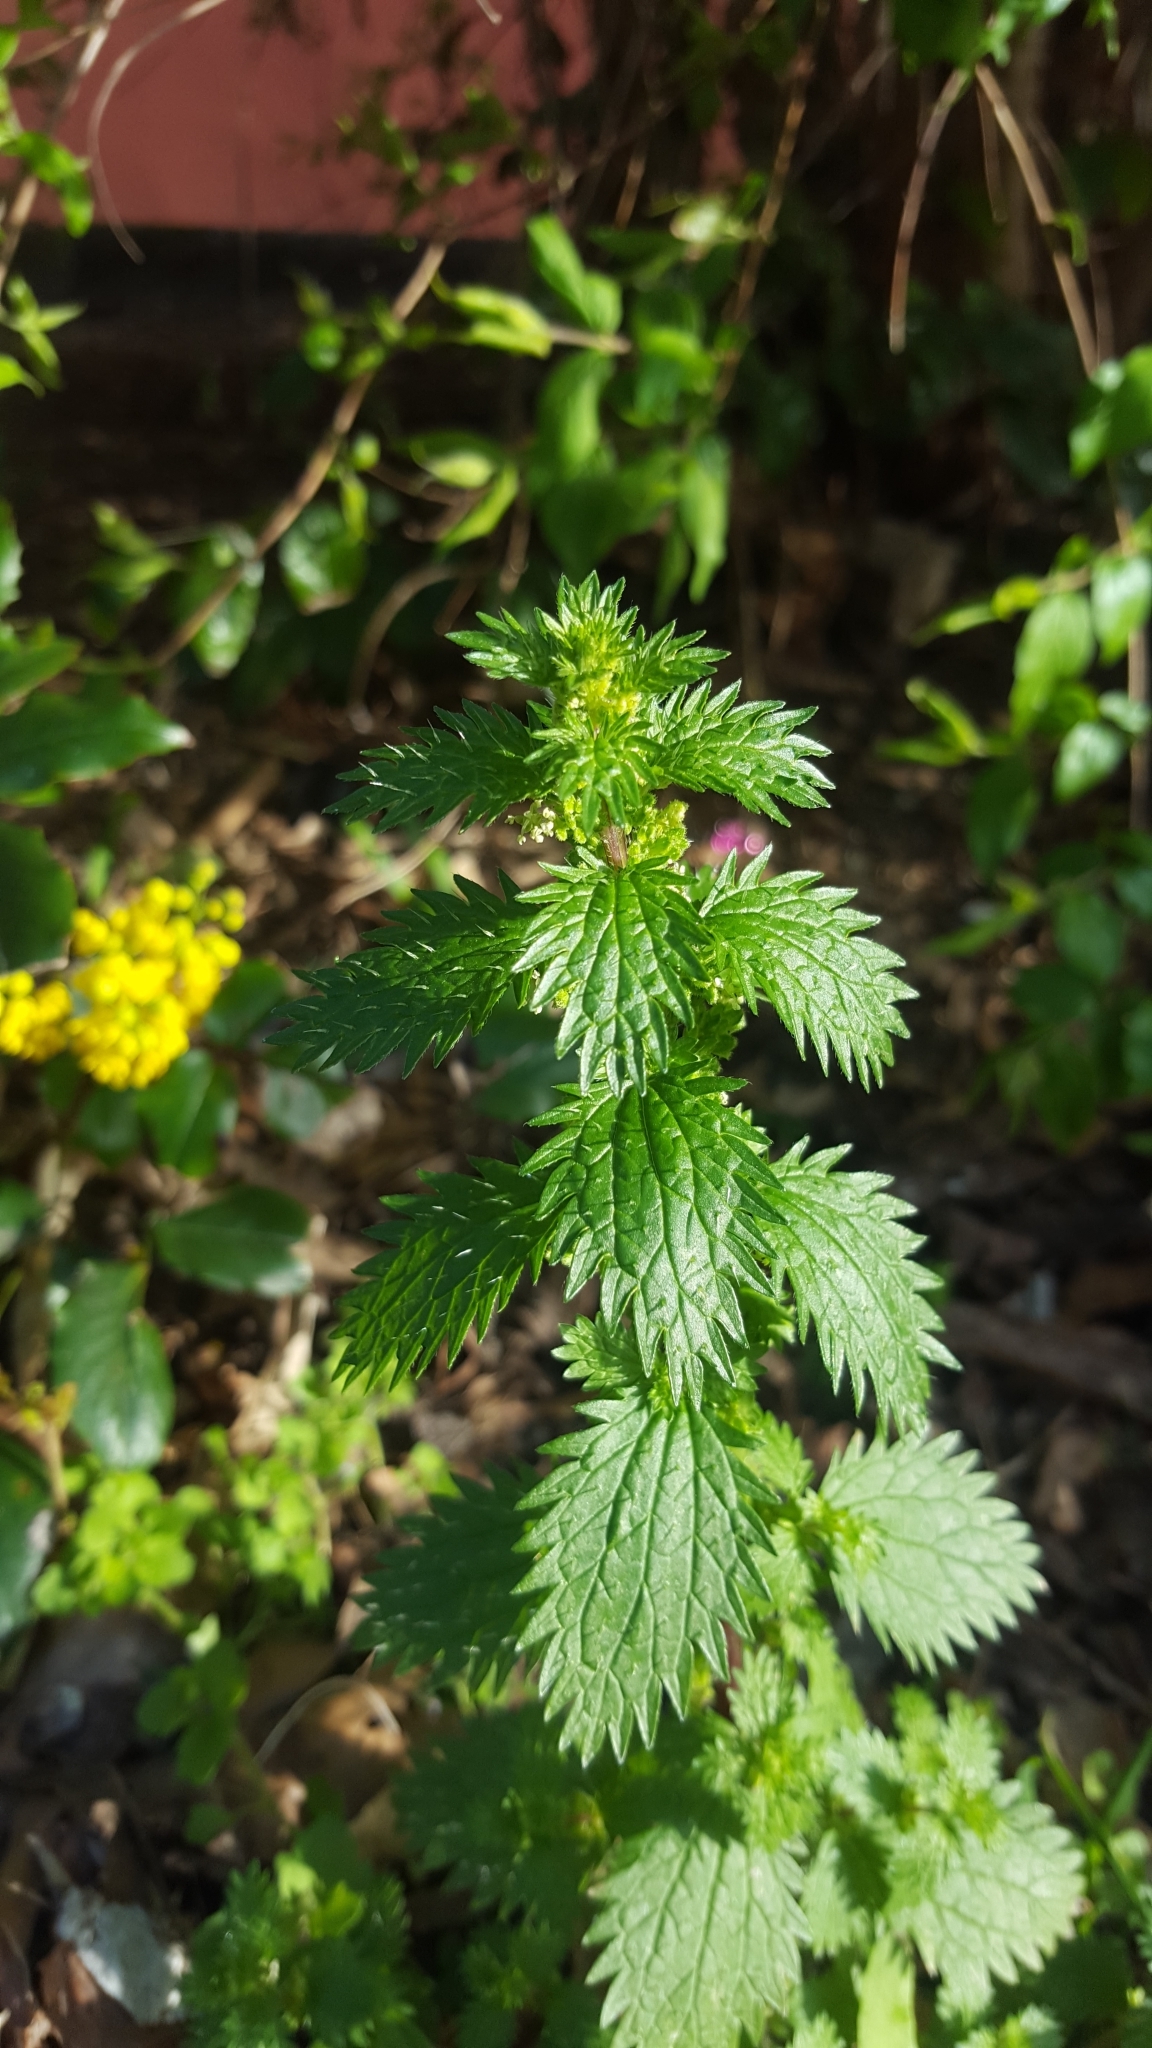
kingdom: Plantae
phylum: Tracheophyta
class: Magnoliopsida
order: Rosales
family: Urticaceae
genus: Urtica
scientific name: Urtica urens
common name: Dwarf nettle
